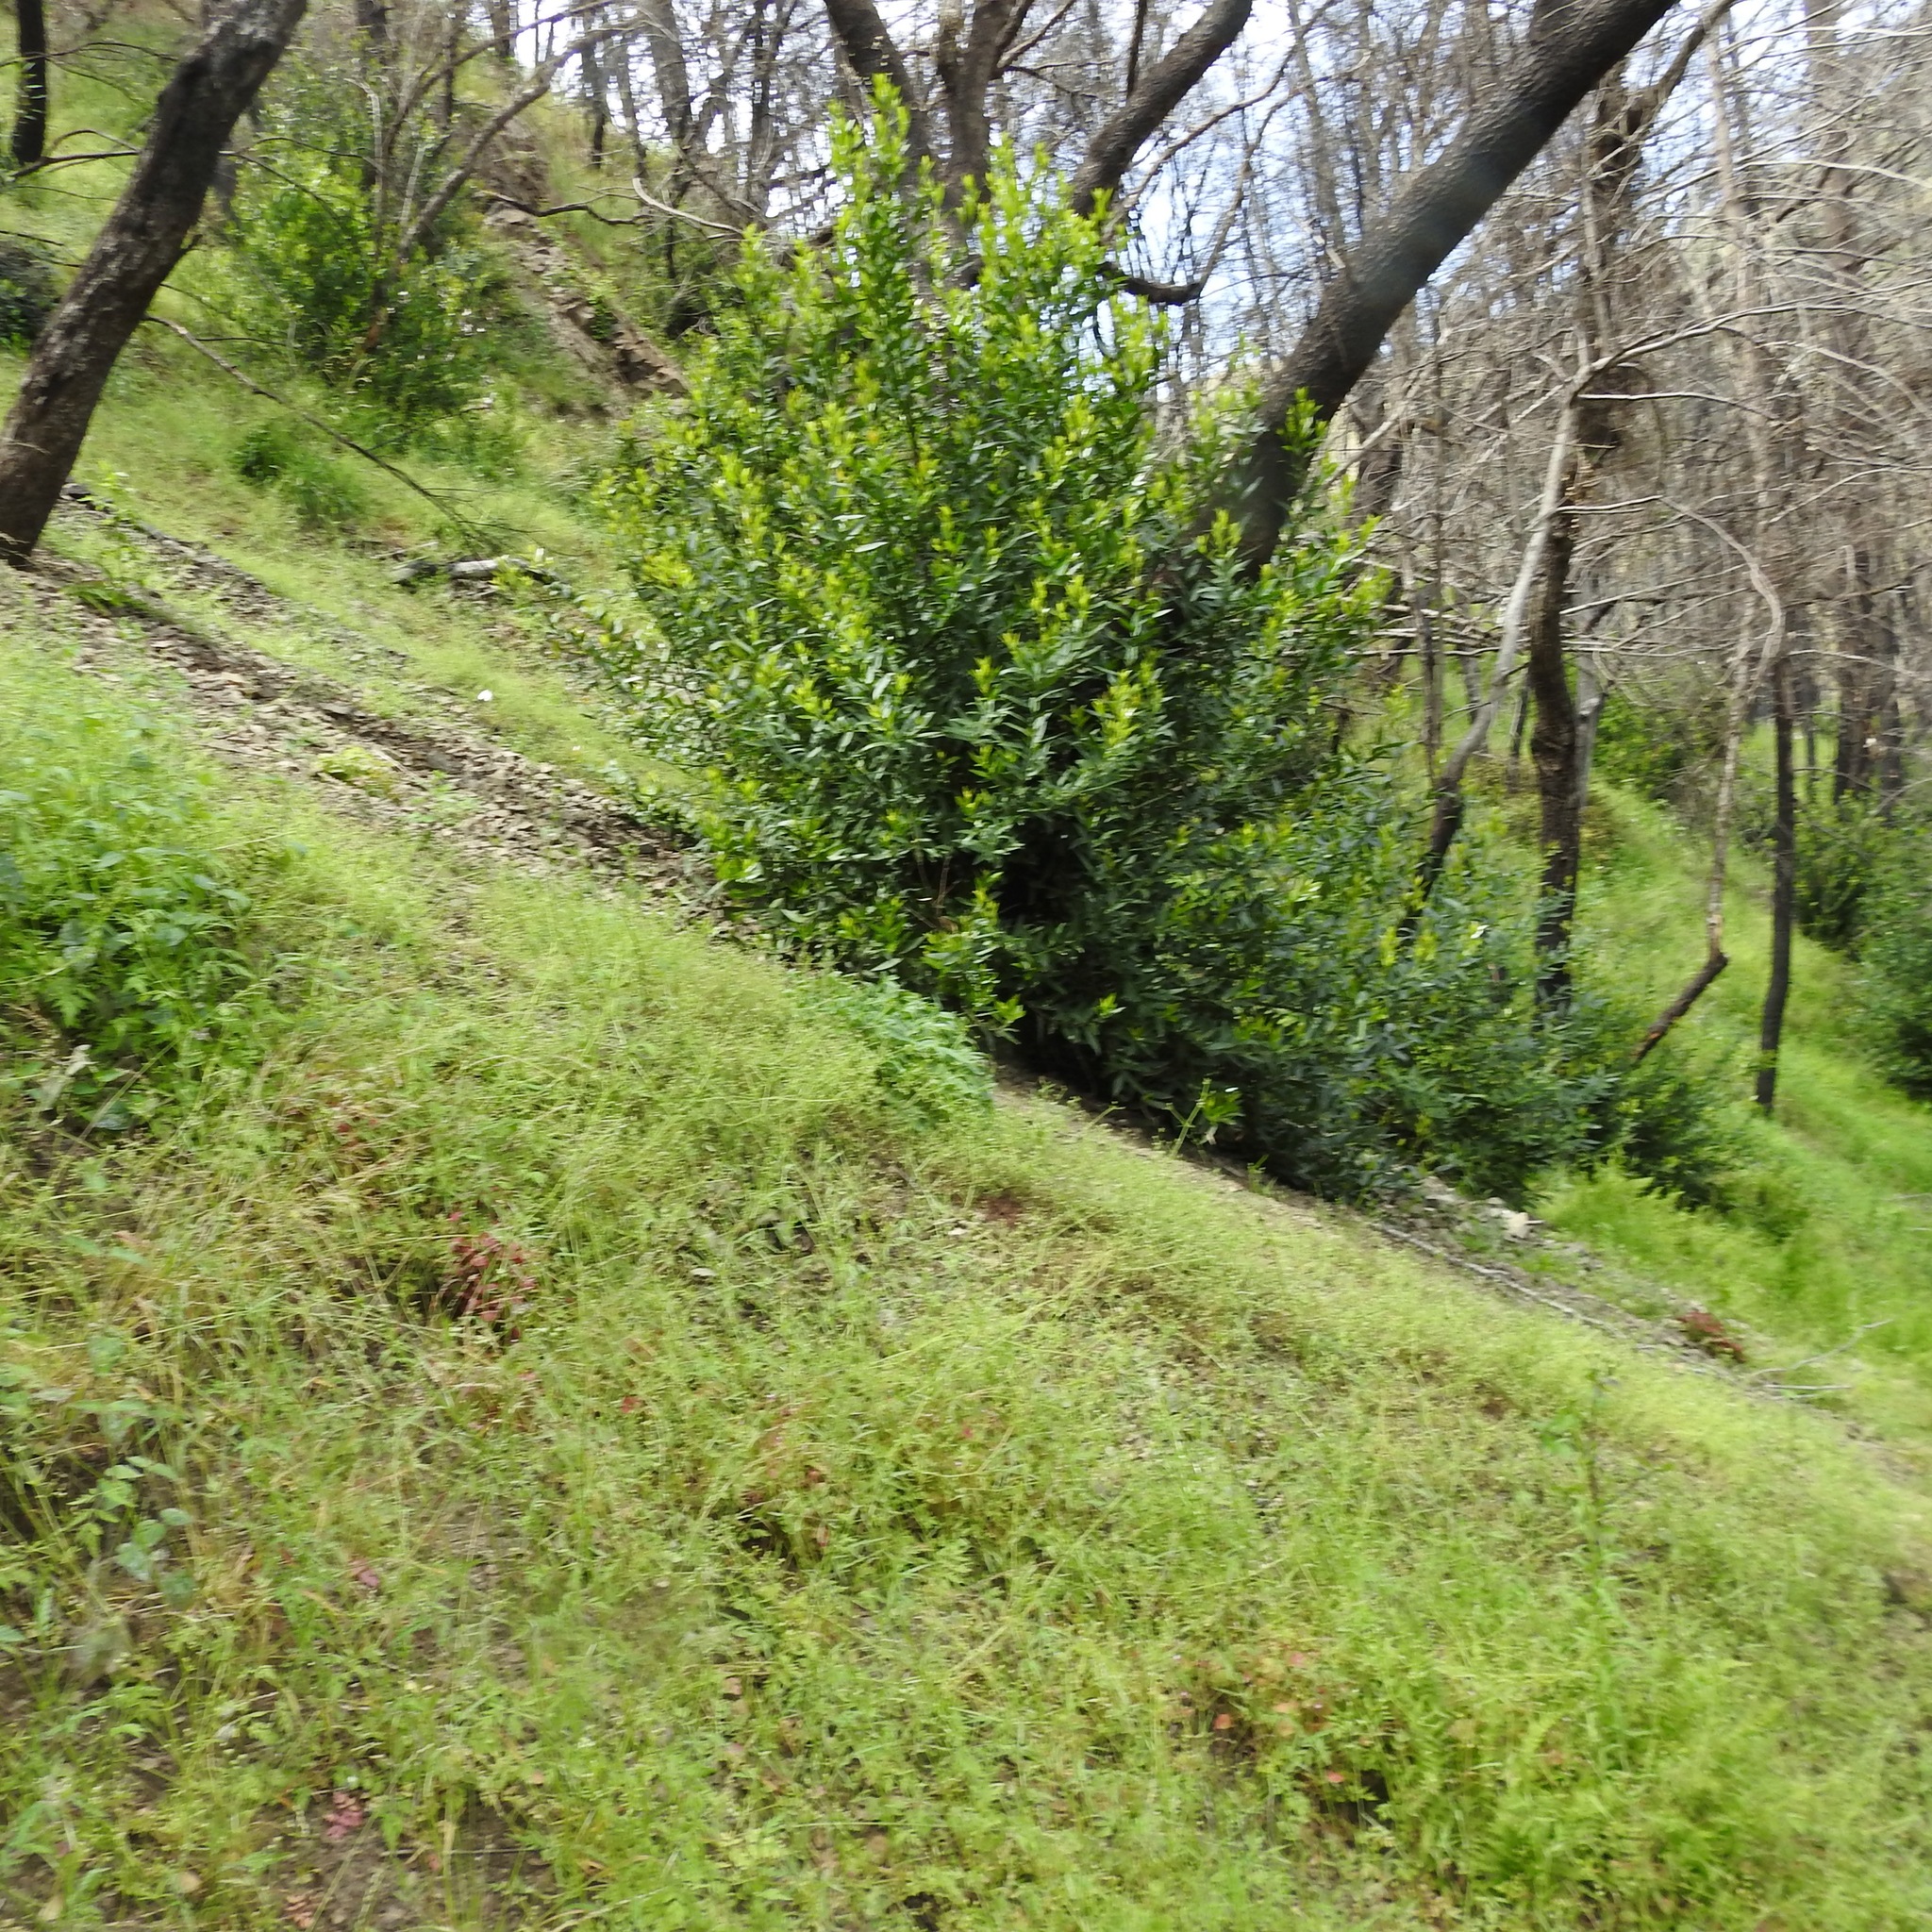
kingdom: Plantae
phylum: Tracheophyta
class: Magnoliopsida
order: Laurales
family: Lauraceae
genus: Umbellularia
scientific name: Umbellularia californica
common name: California bay
